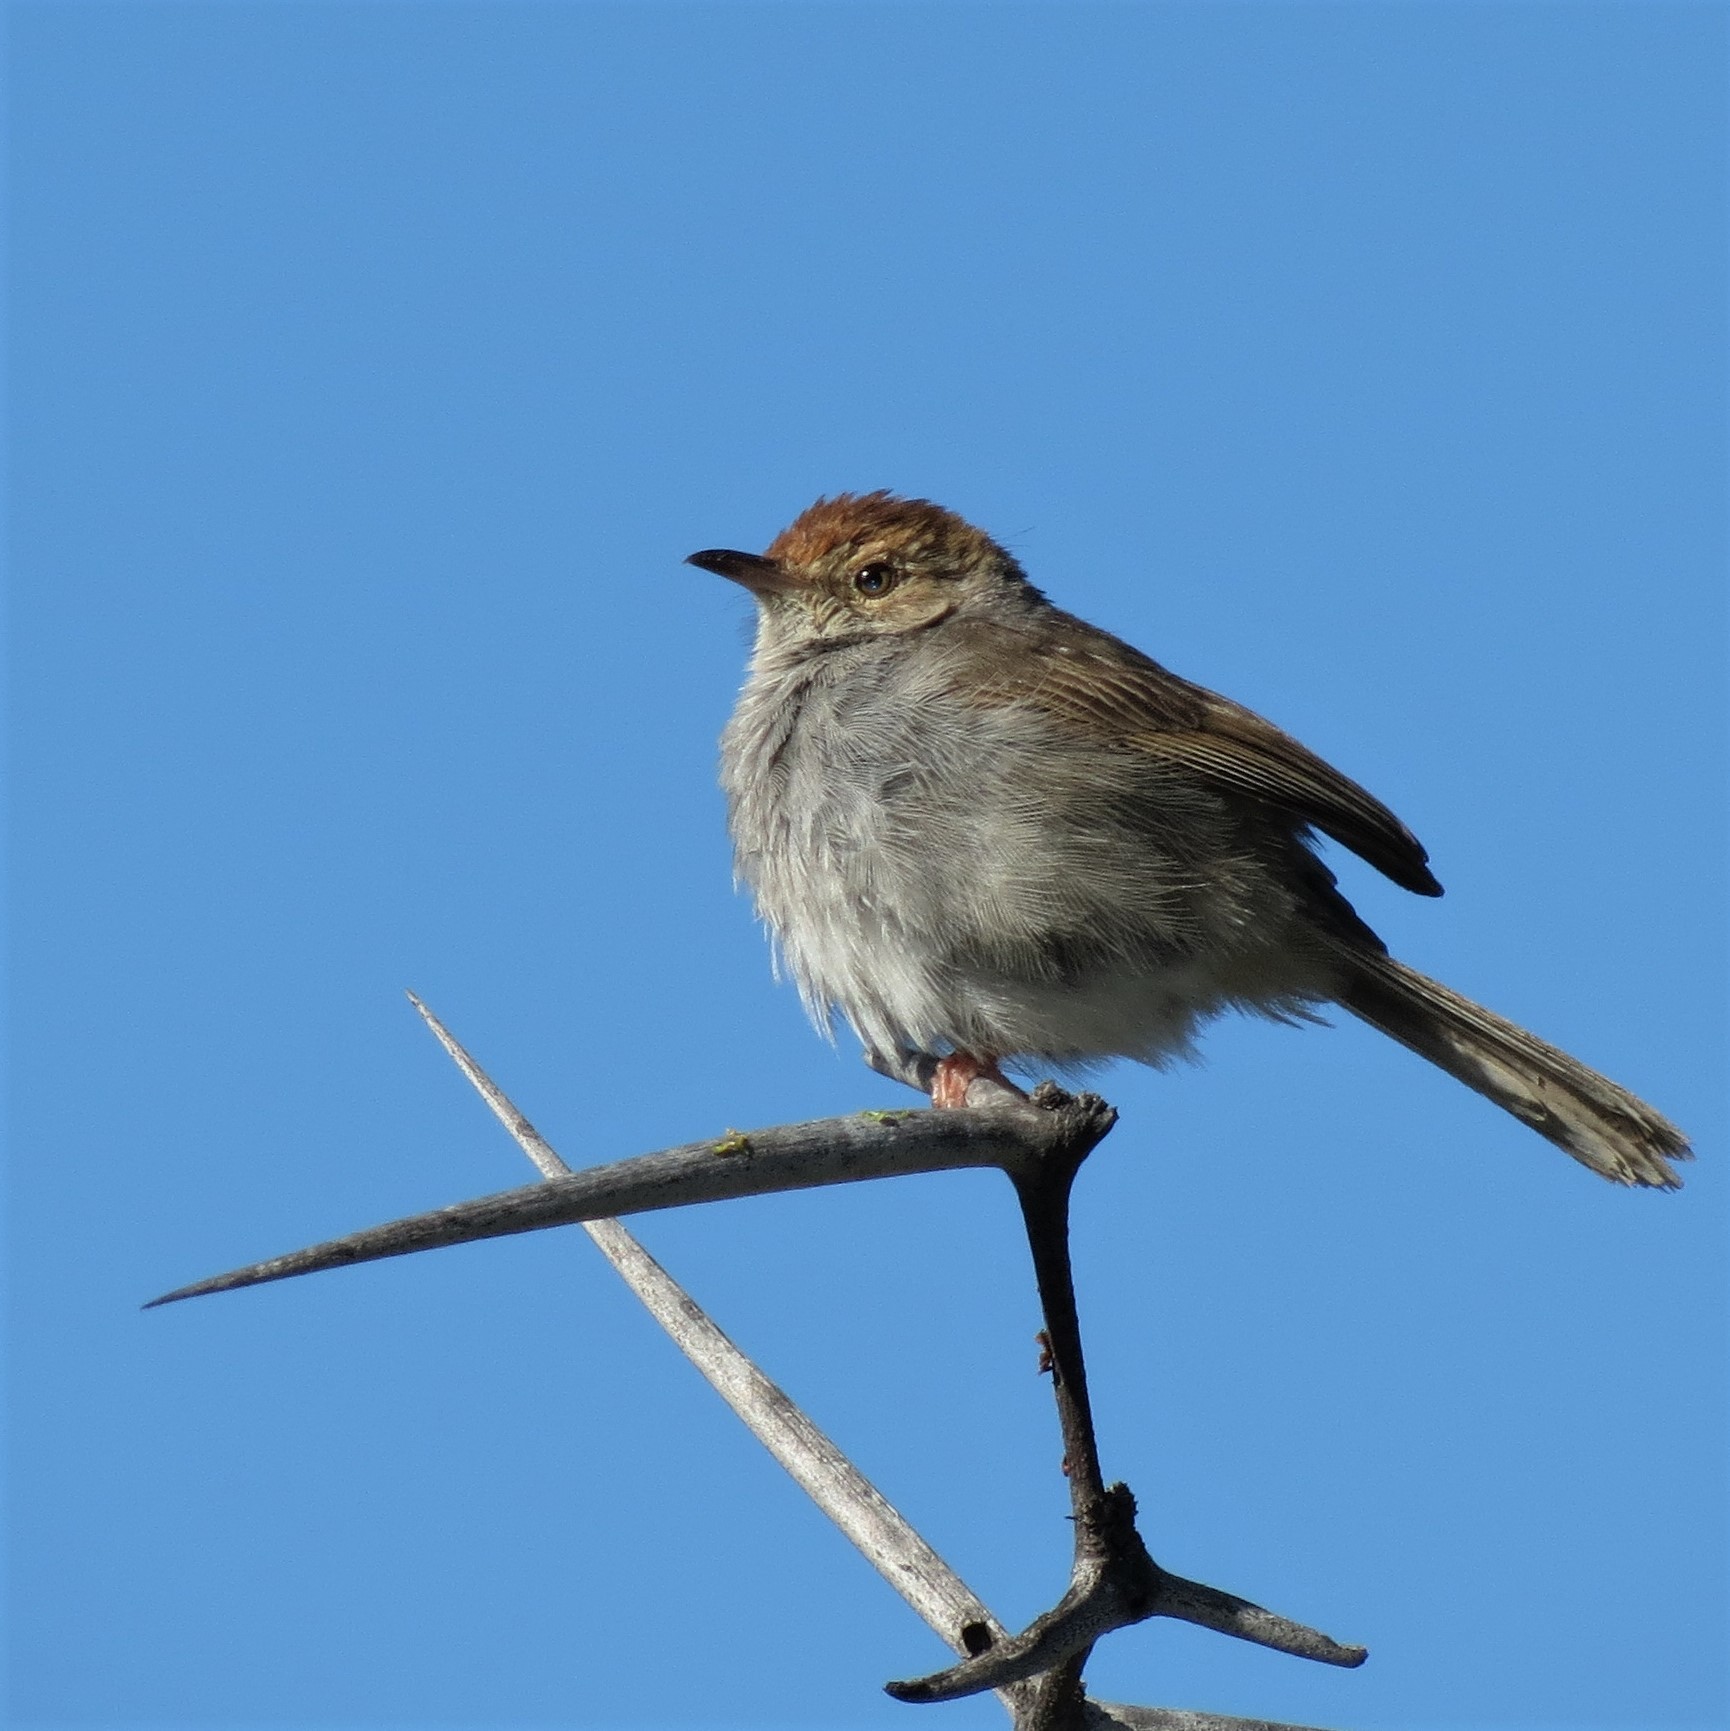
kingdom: Animalia
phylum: Chordata
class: Aves
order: Passeriformes
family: Cisticolidae
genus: Cisticola
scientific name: Cisticola fulvicapilla
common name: Neddicky
